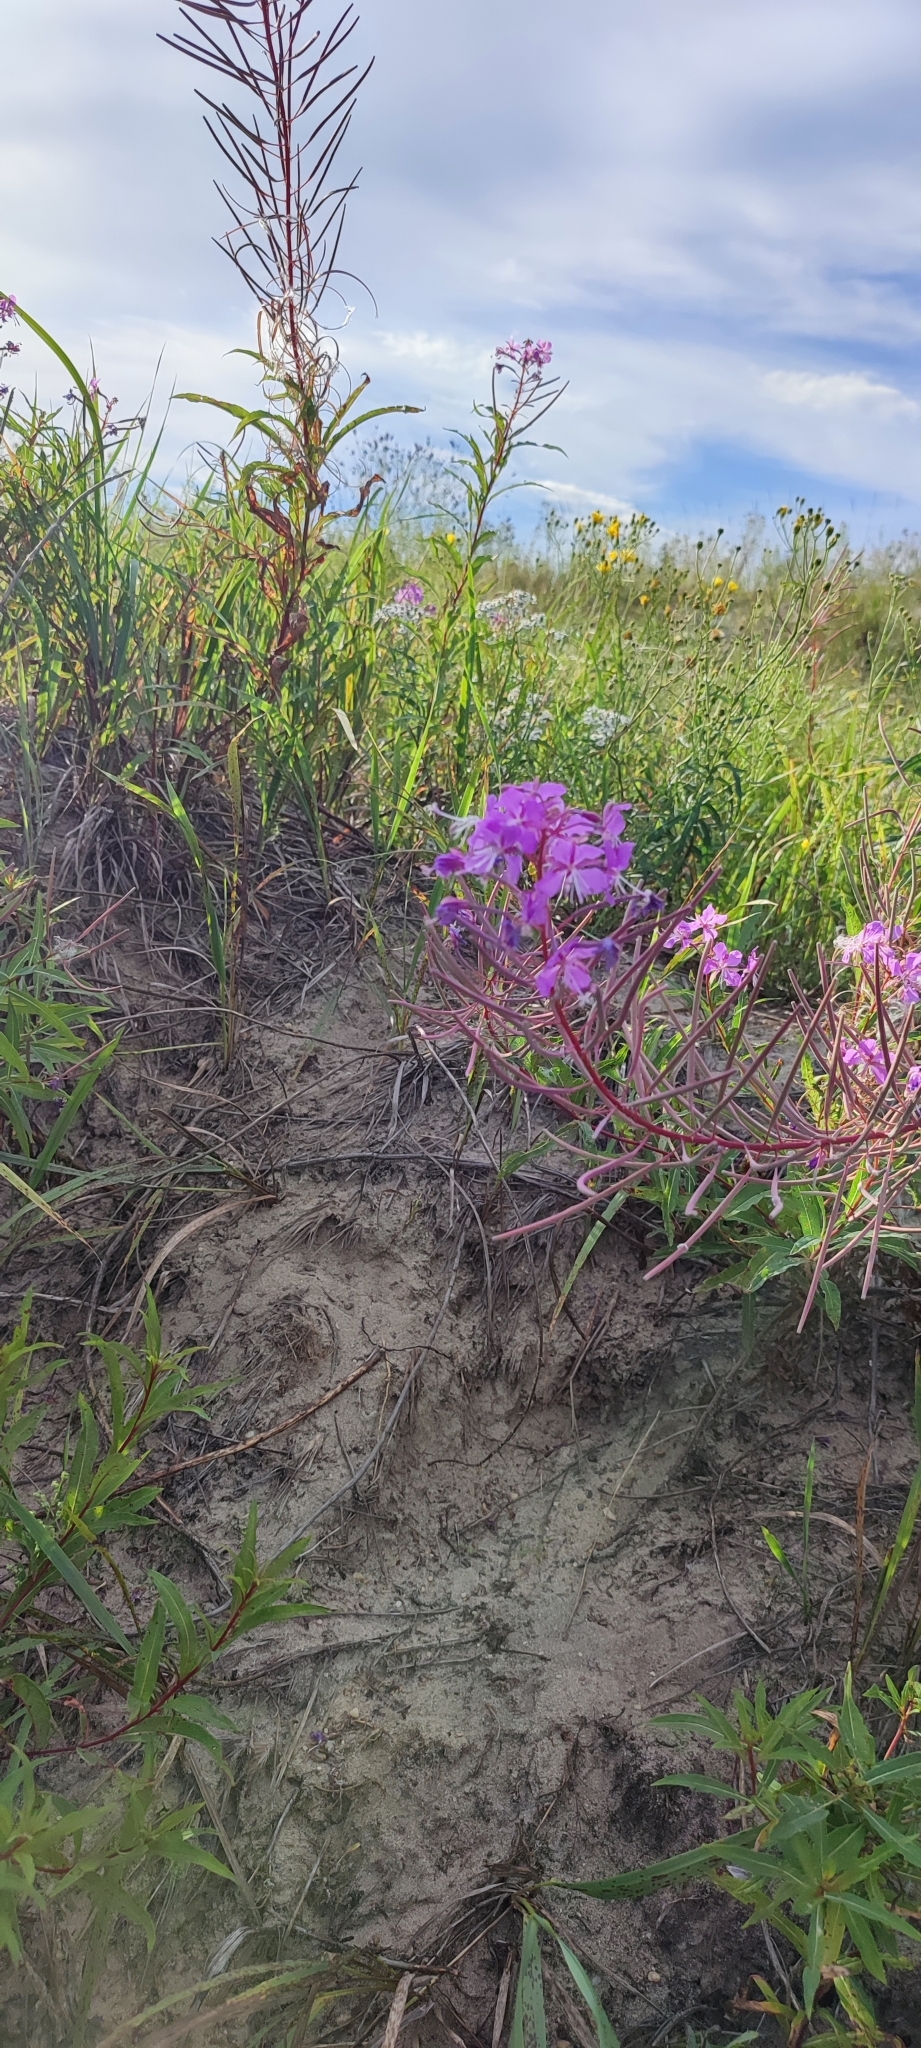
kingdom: Plantae
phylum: Tracheophyta
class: Magnoliopsida
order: Myrtales
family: Onagraceae
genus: Chamaenerion
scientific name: Chamaenerion angustifolium
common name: Fireweed
